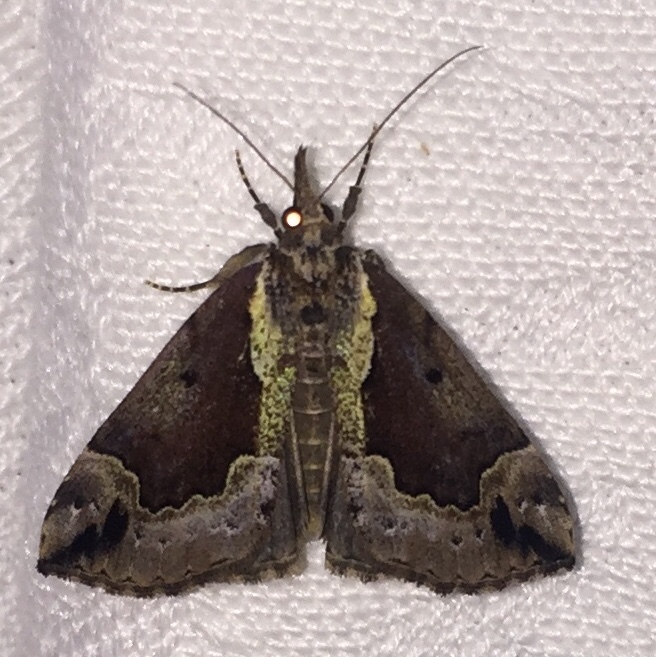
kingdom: Animalia
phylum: Arthropoda
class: Insecta
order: Lepidoptera
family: Erebidae
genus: Hypena
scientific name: Hypena baltimoralis
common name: Baltimore snout
